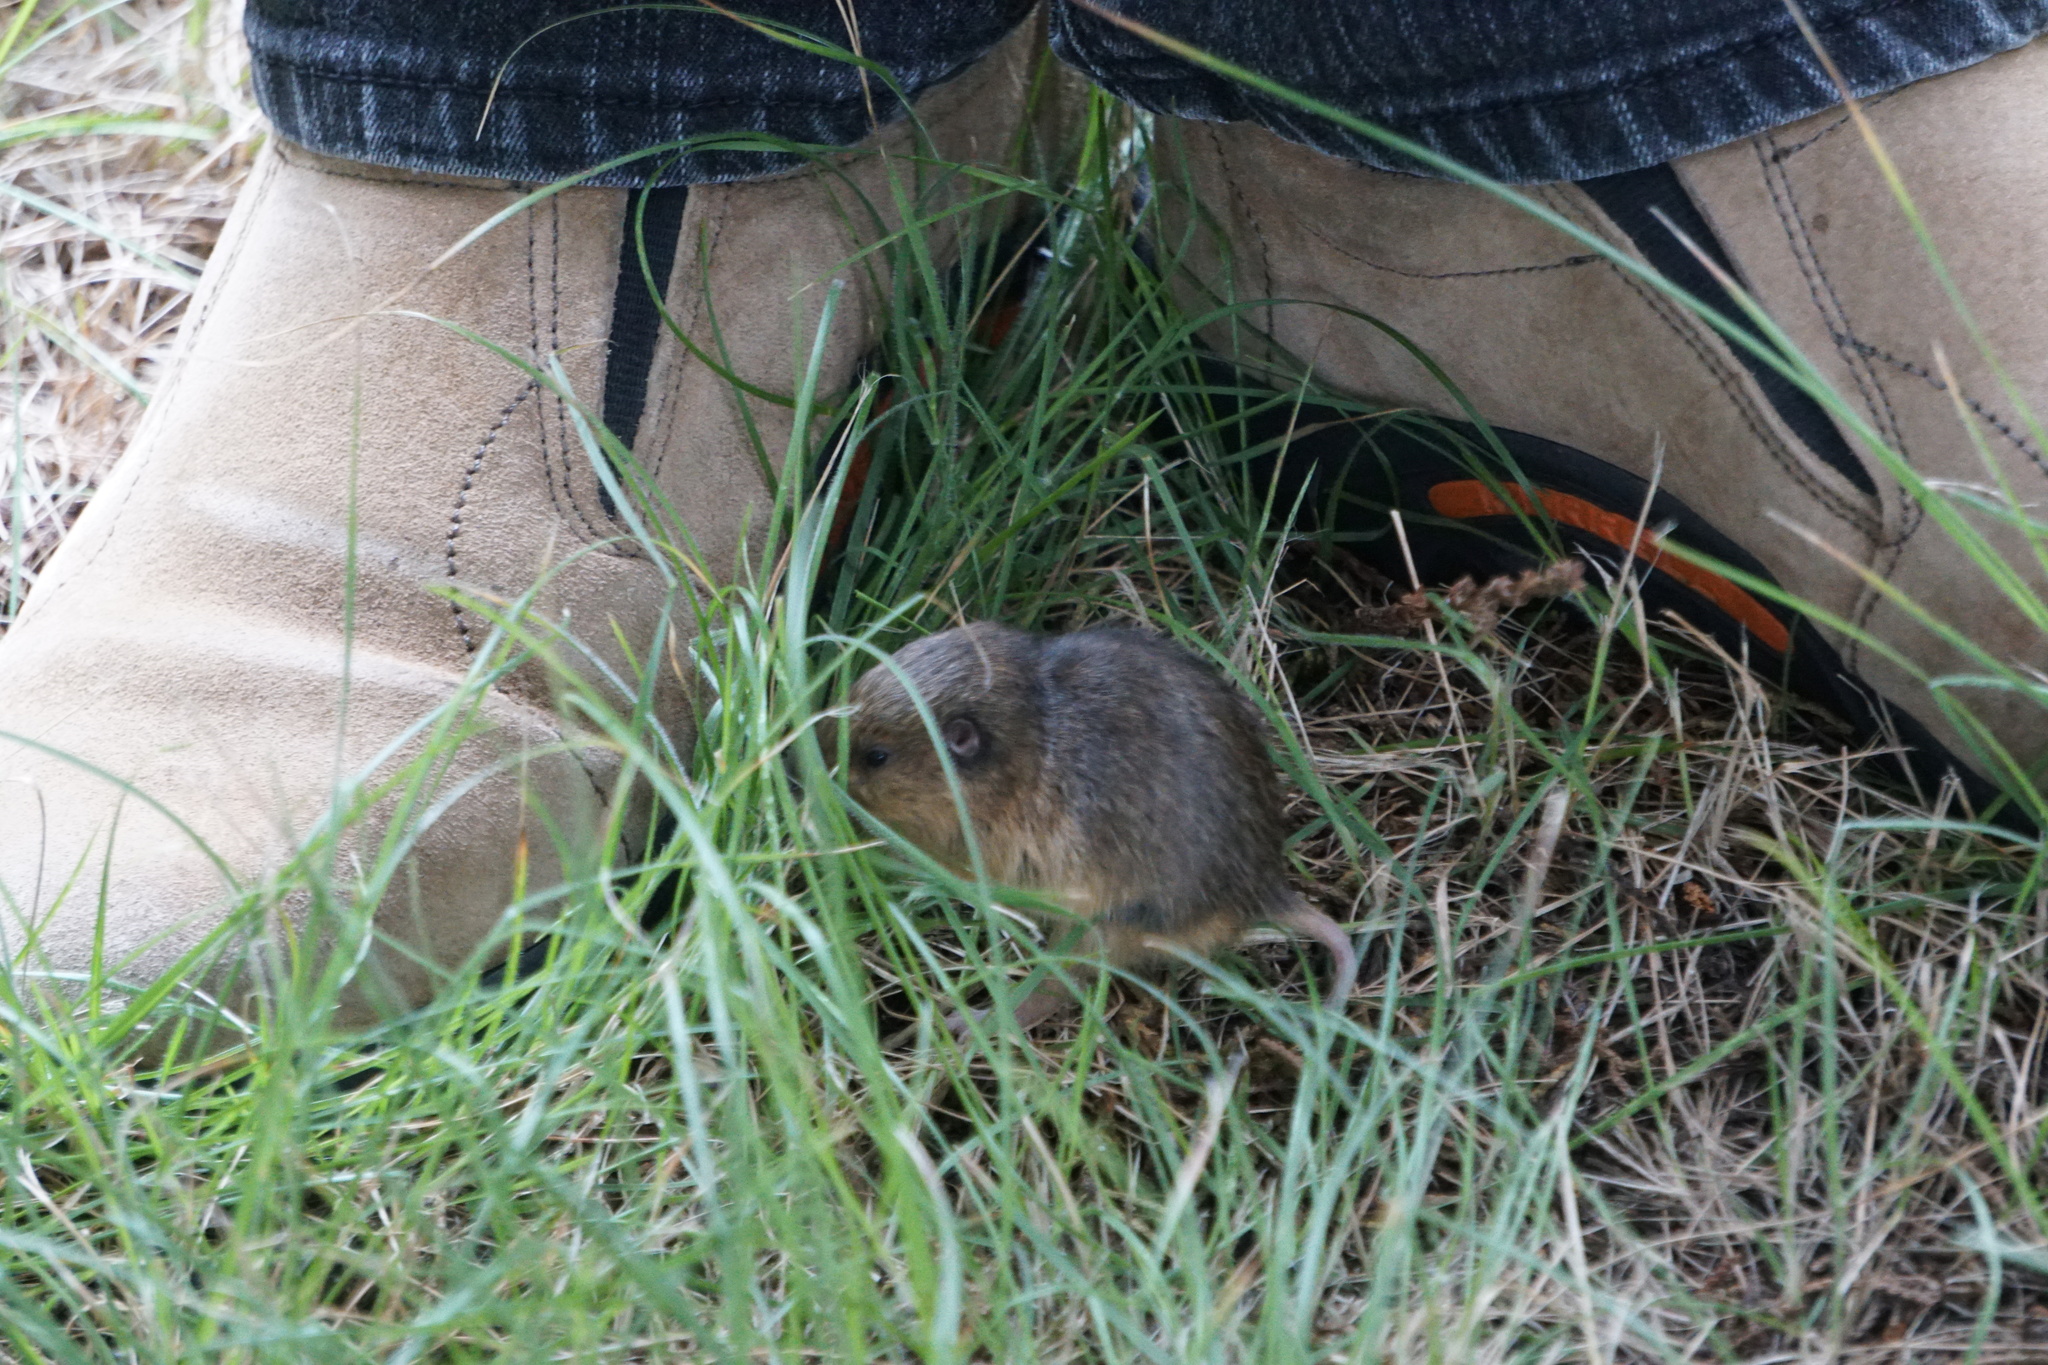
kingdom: Animalia
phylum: Chordata
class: Mammalia
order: Rodentia
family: Geomyidae
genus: Thomomys
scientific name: Thomomys bottae
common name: Botta's pocket gopher
